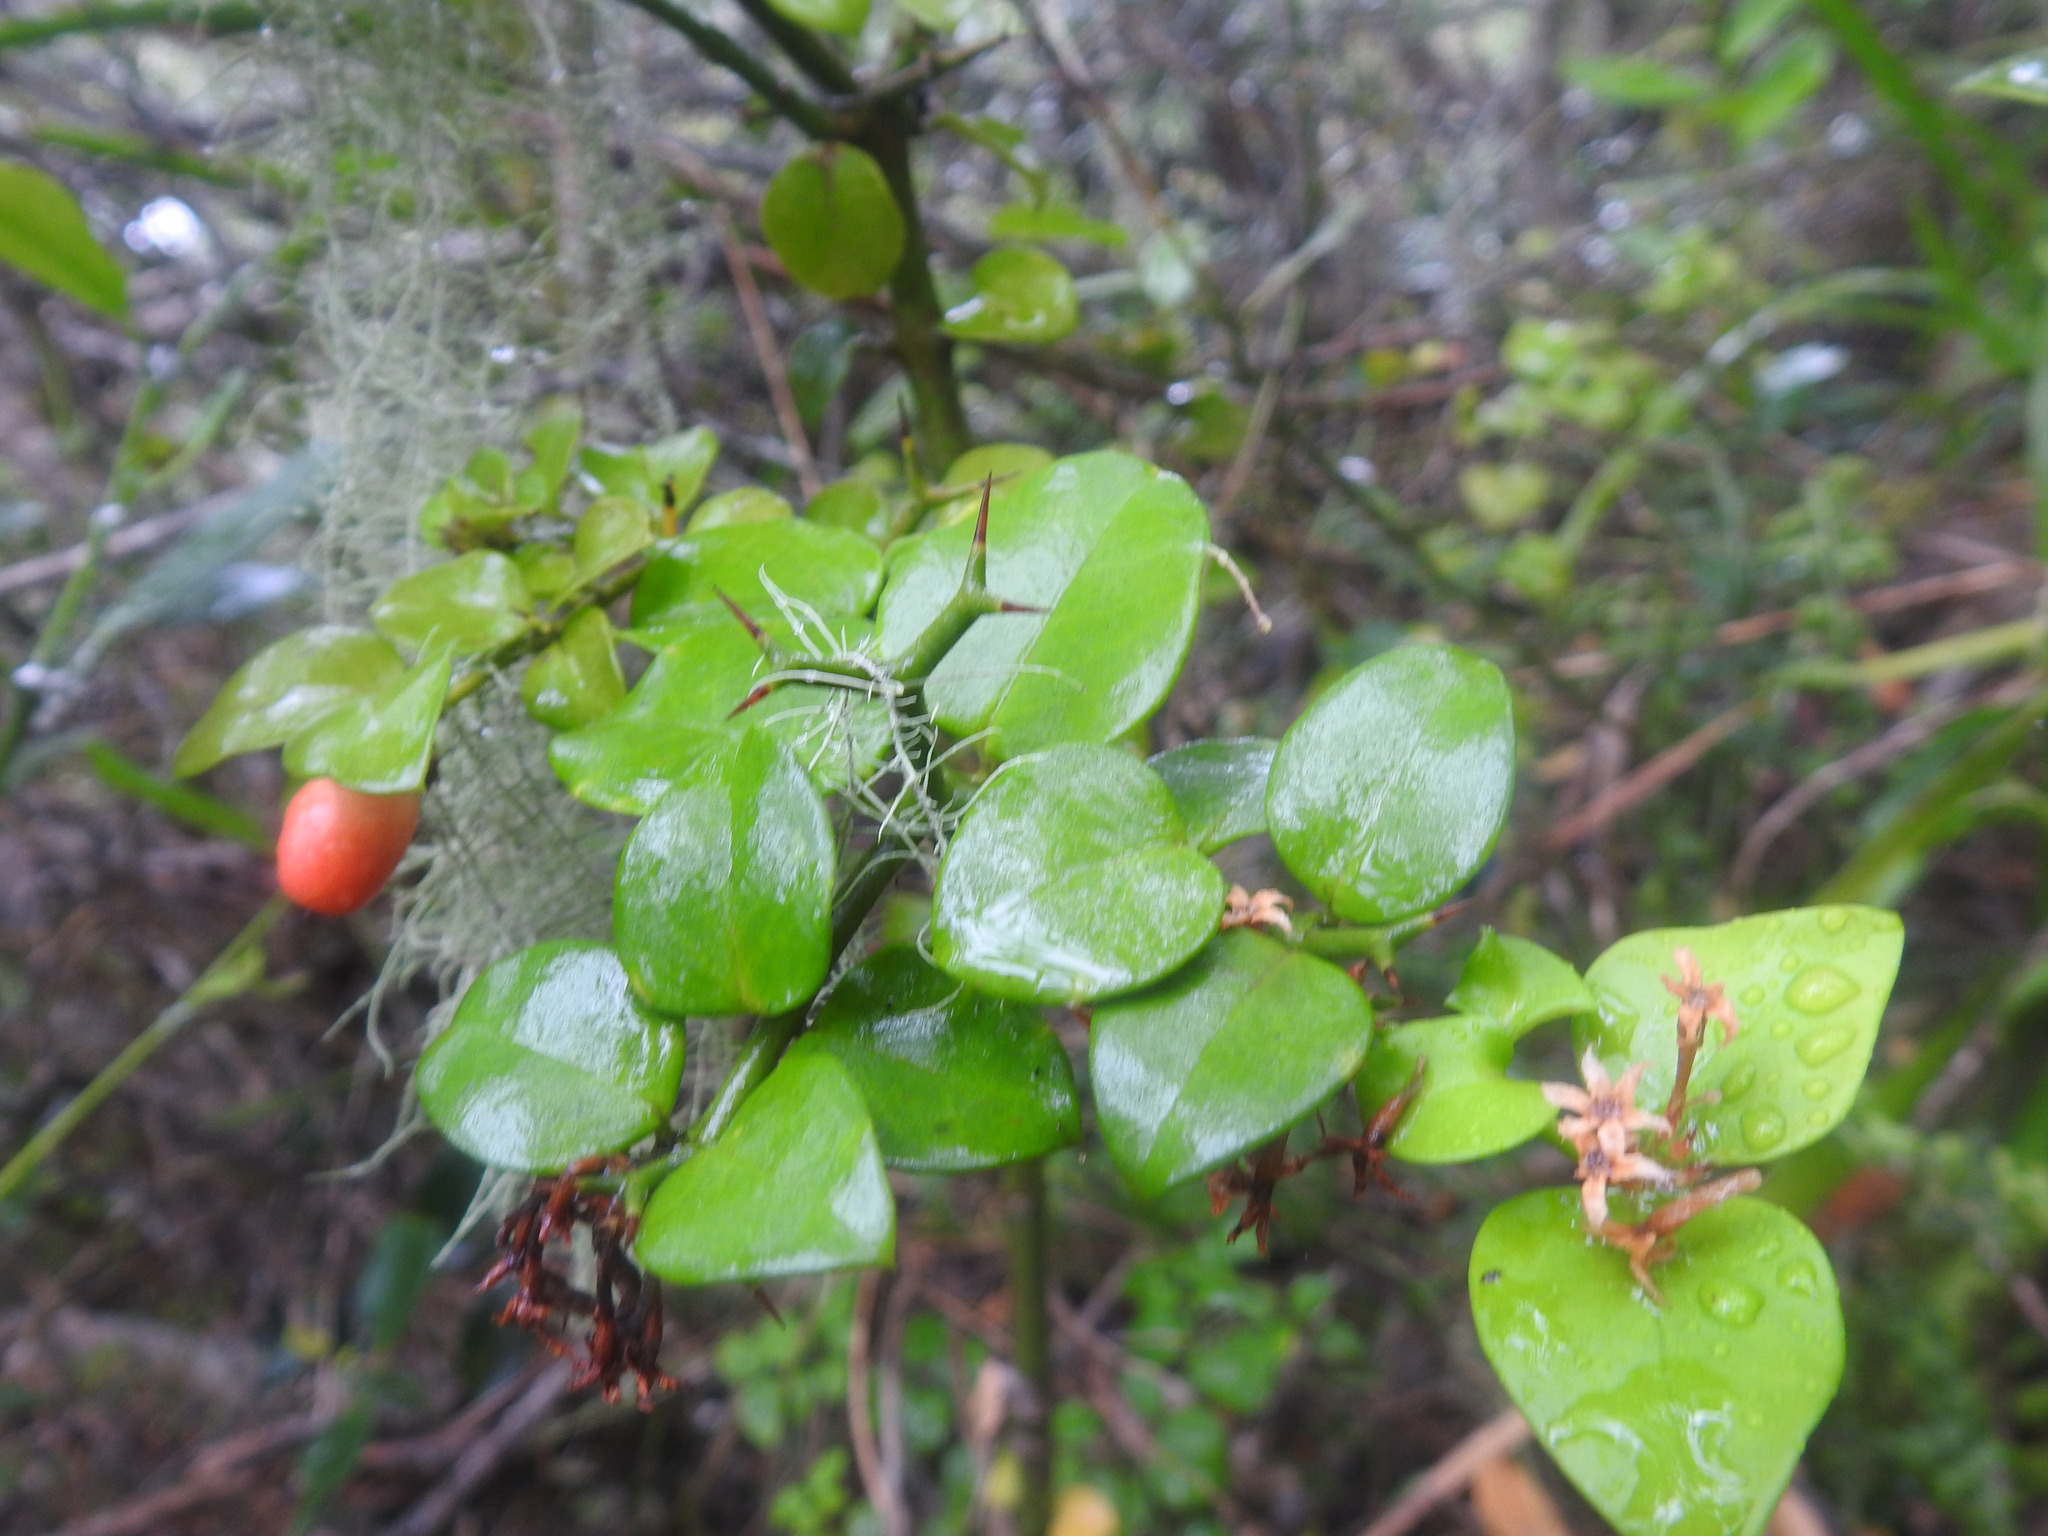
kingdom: Plantae
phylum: Tracheophyta
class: Magnoliopsida
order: Gentianales
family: Apocynaceae
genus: Carissa
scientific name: Carissa bispinosa
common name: Forest num-num
